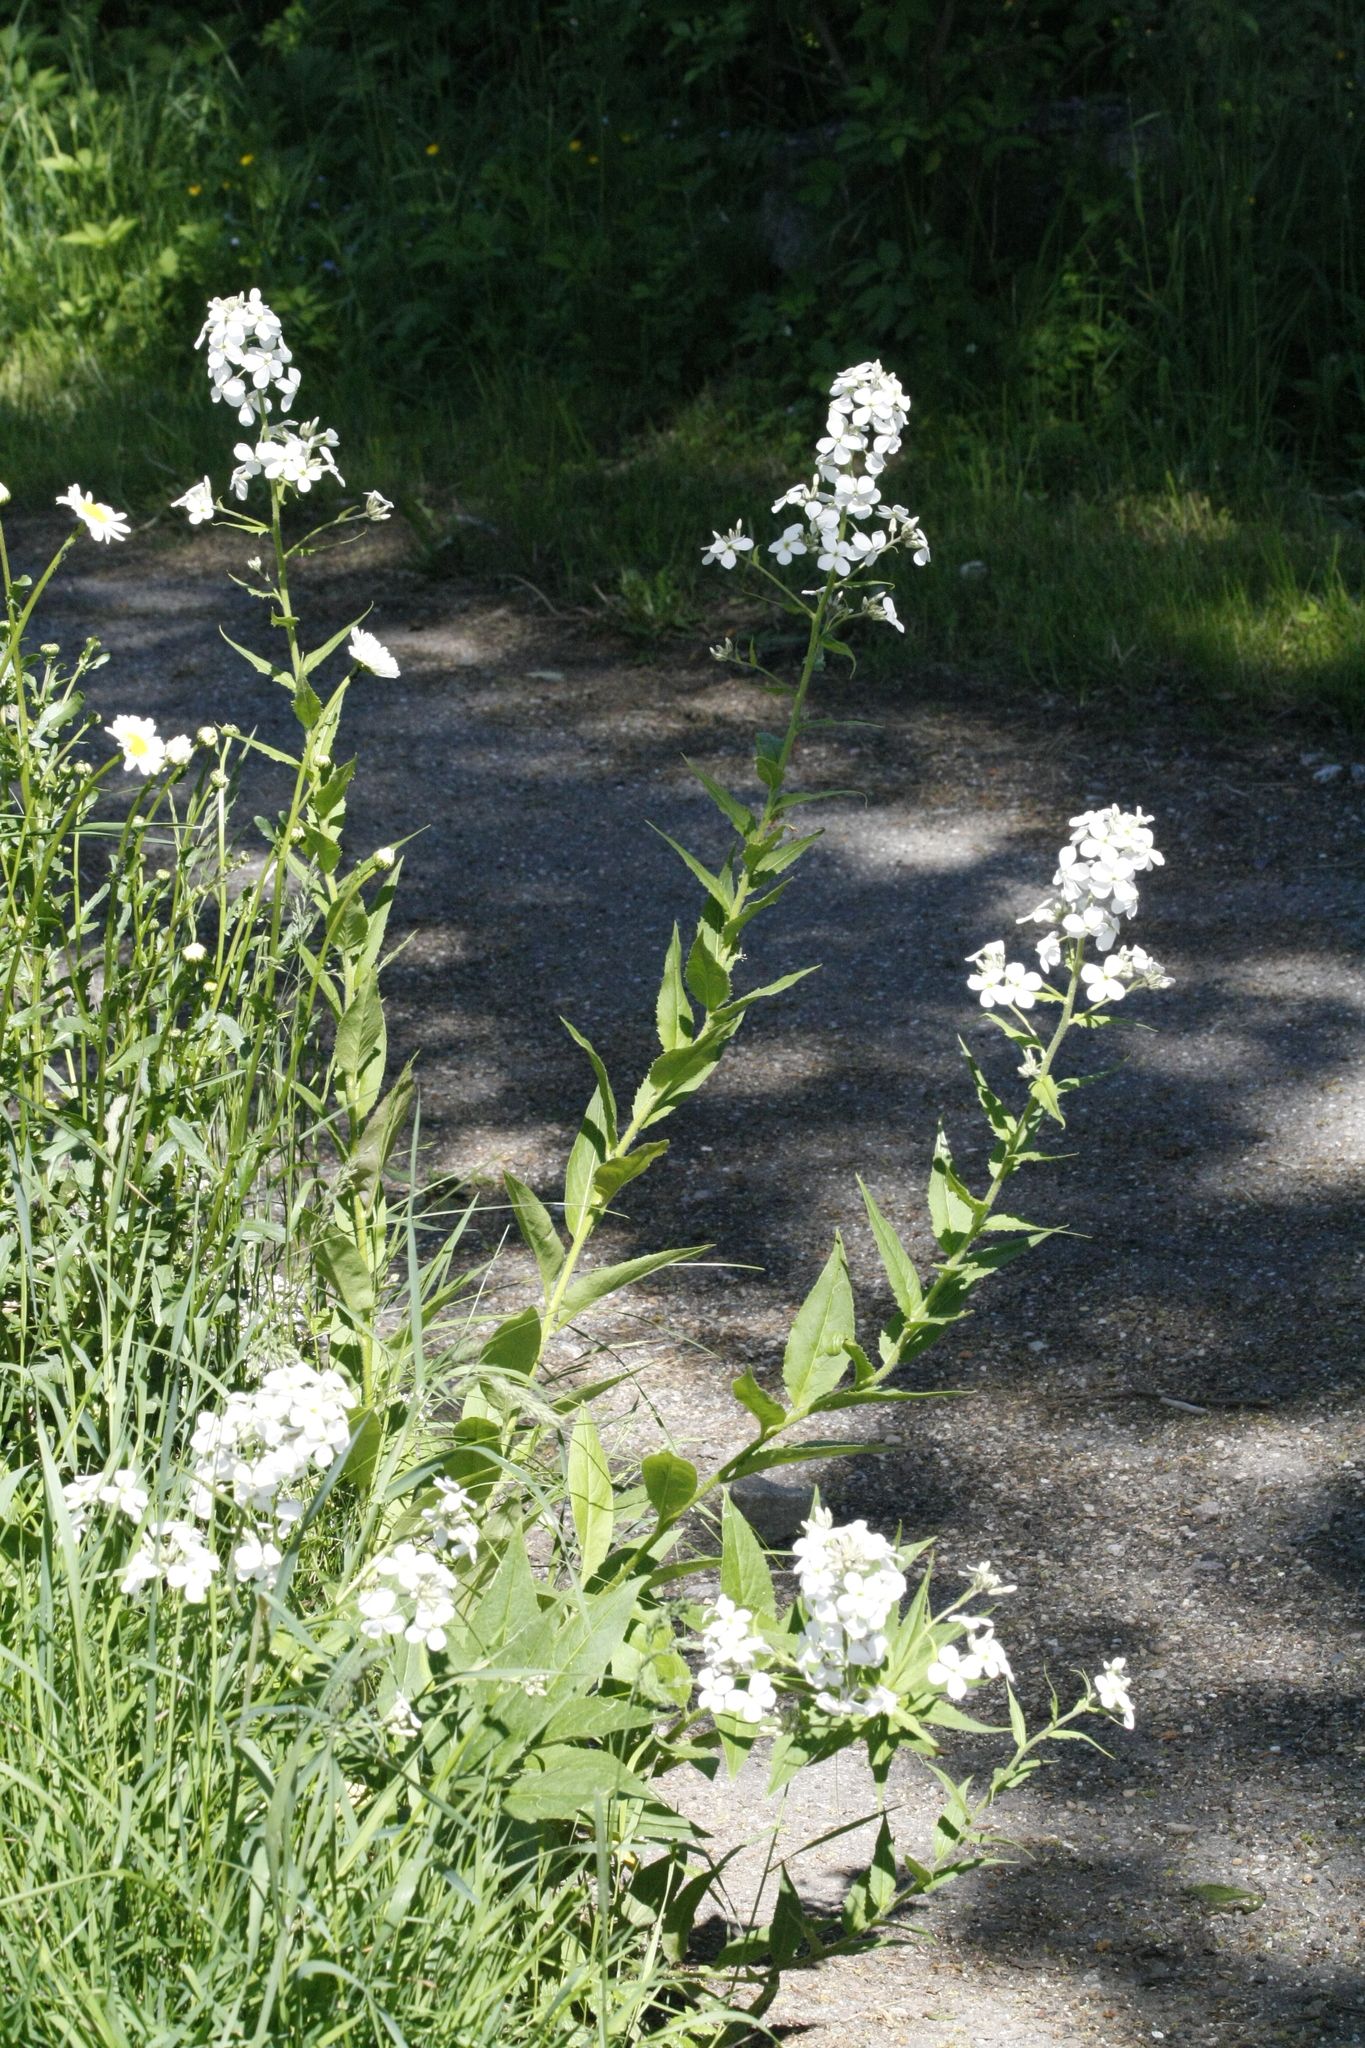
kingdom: Plantae
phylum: Tracheophyta
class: Magnoliopsida
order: Brassicales
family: Brassicaceae
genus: Hesperis
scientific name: Hesperis matronalis
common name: Dame's-violet
